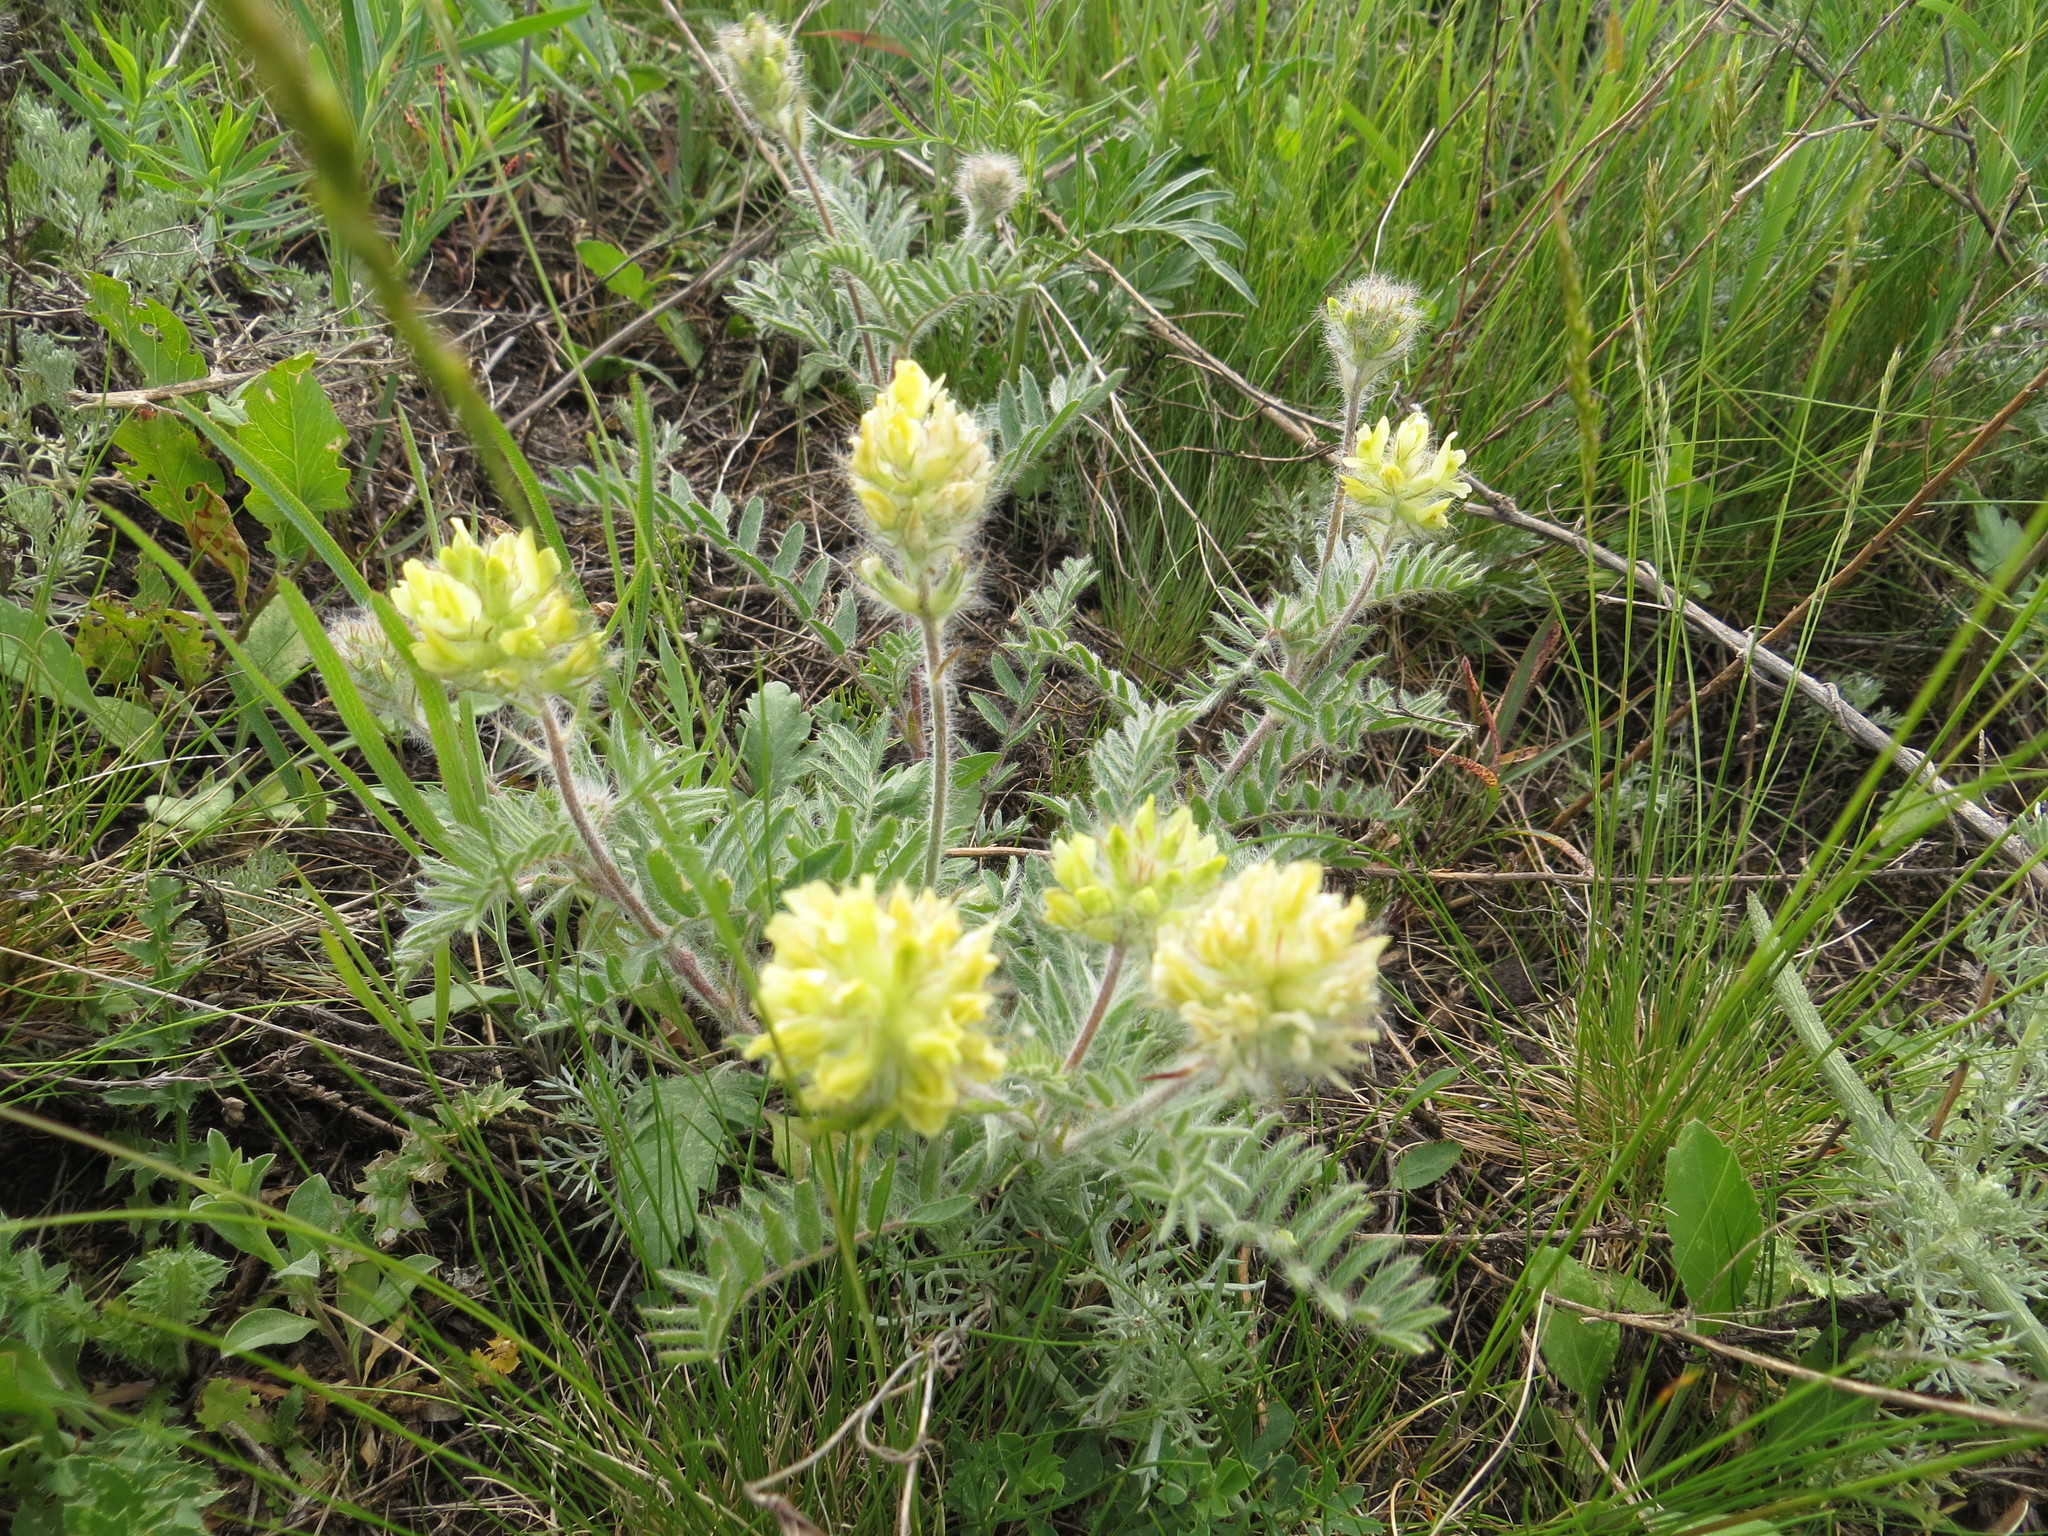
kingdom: Plantae
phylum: Tracheophyta
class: Magnoliopsida
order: Fabales
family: Fabaceae
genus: Oxytropis
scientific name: Oxytropis pilosa
